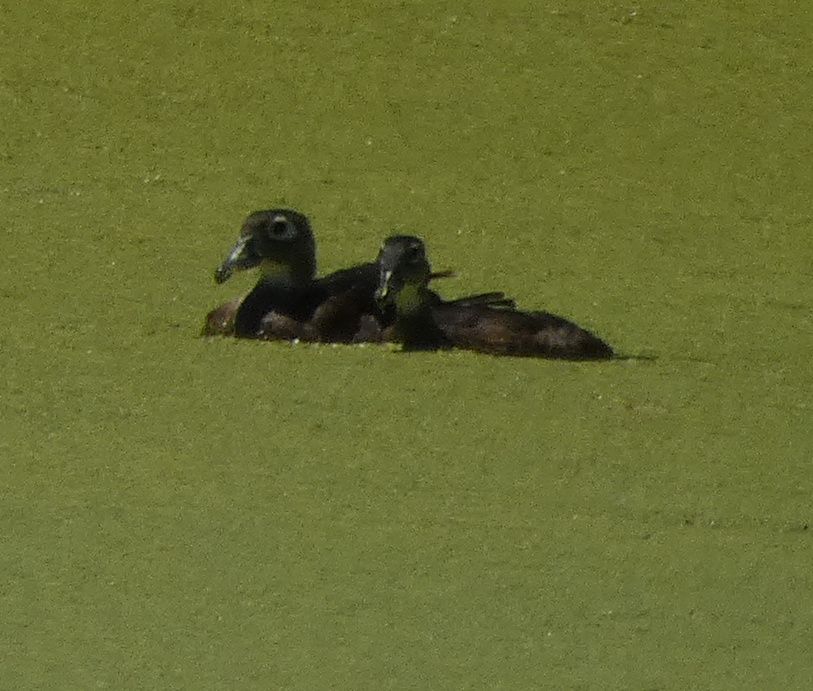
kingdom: Animalia
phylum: Chordata
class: Aves
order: Anseriformes
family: Anatidae
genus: Aix
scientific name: Aix sponsa
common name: Wood duck
